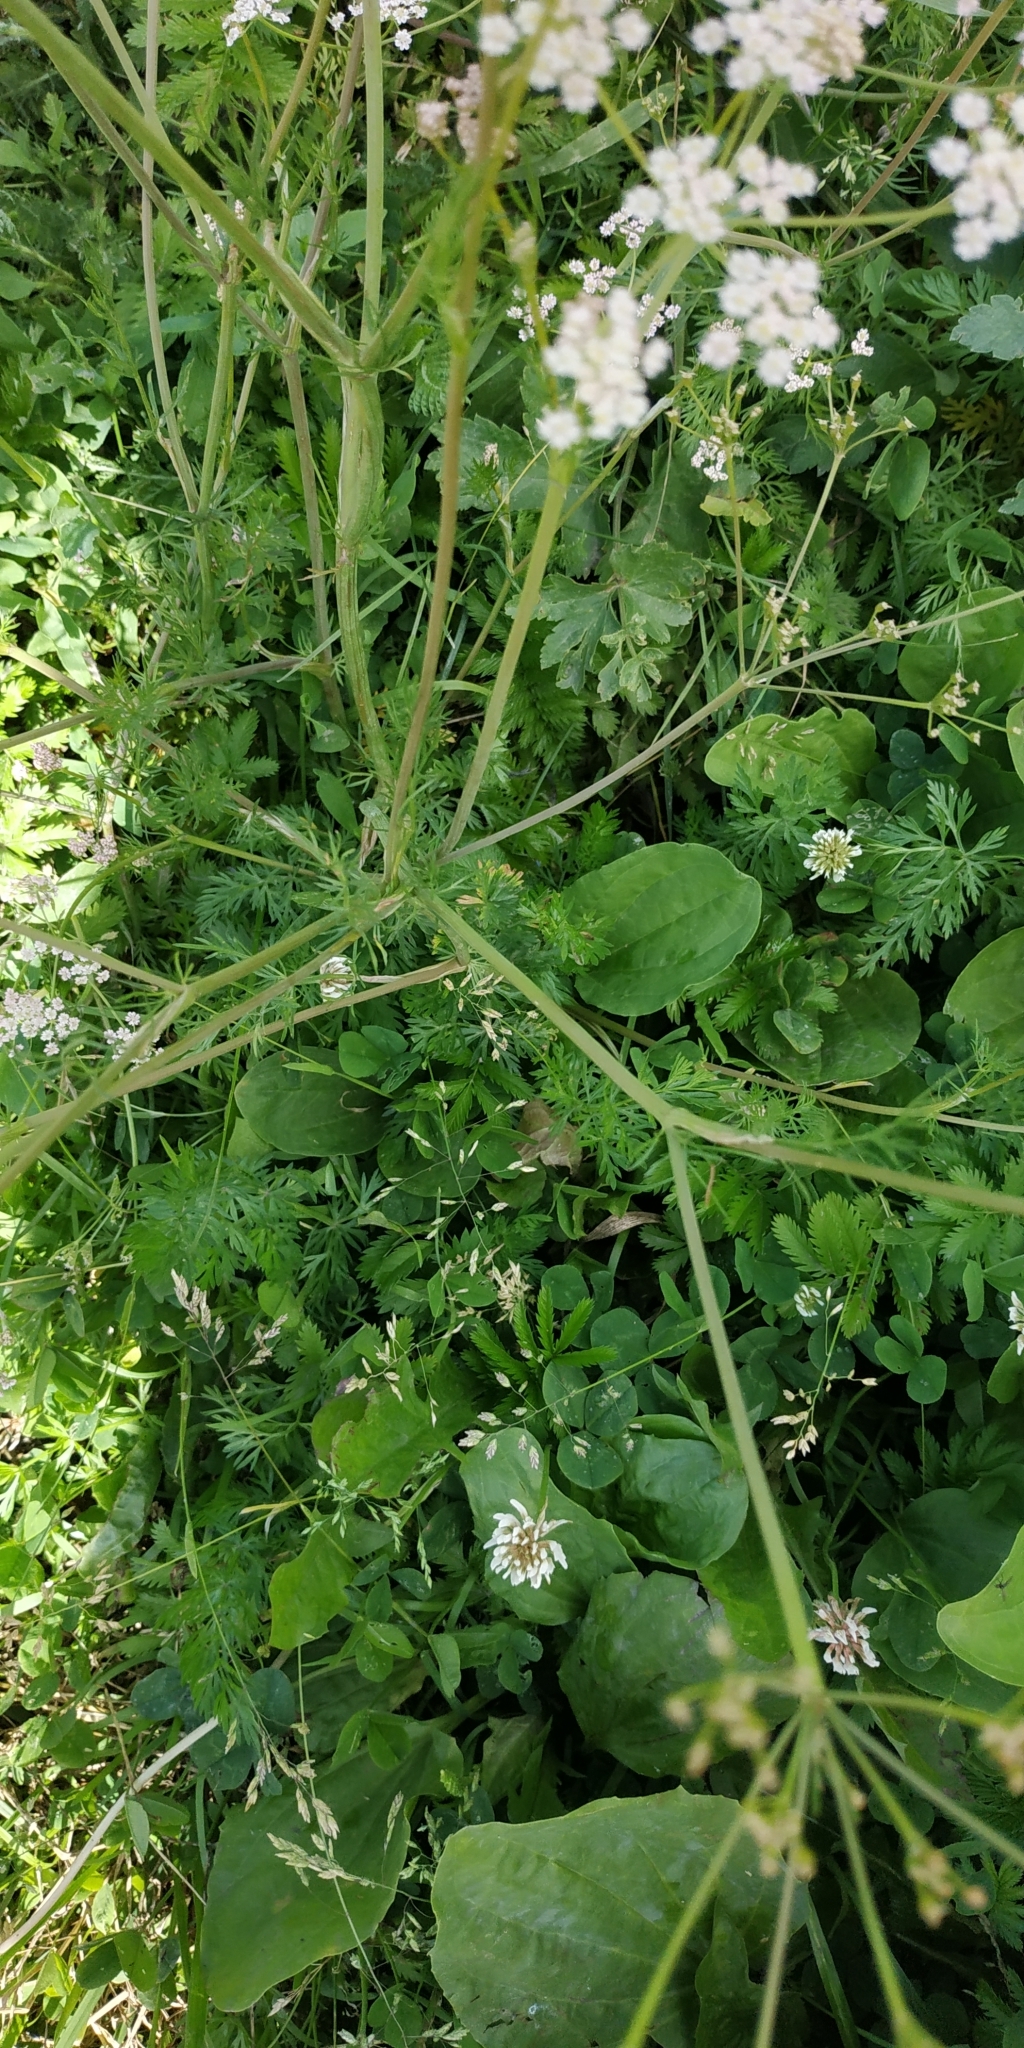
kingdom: Plantae
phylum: Tracheophyta
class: Magnoliopsida
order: Apiales
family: Apiaceae
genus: Carum
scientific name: Carum carvi
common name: Caraway
